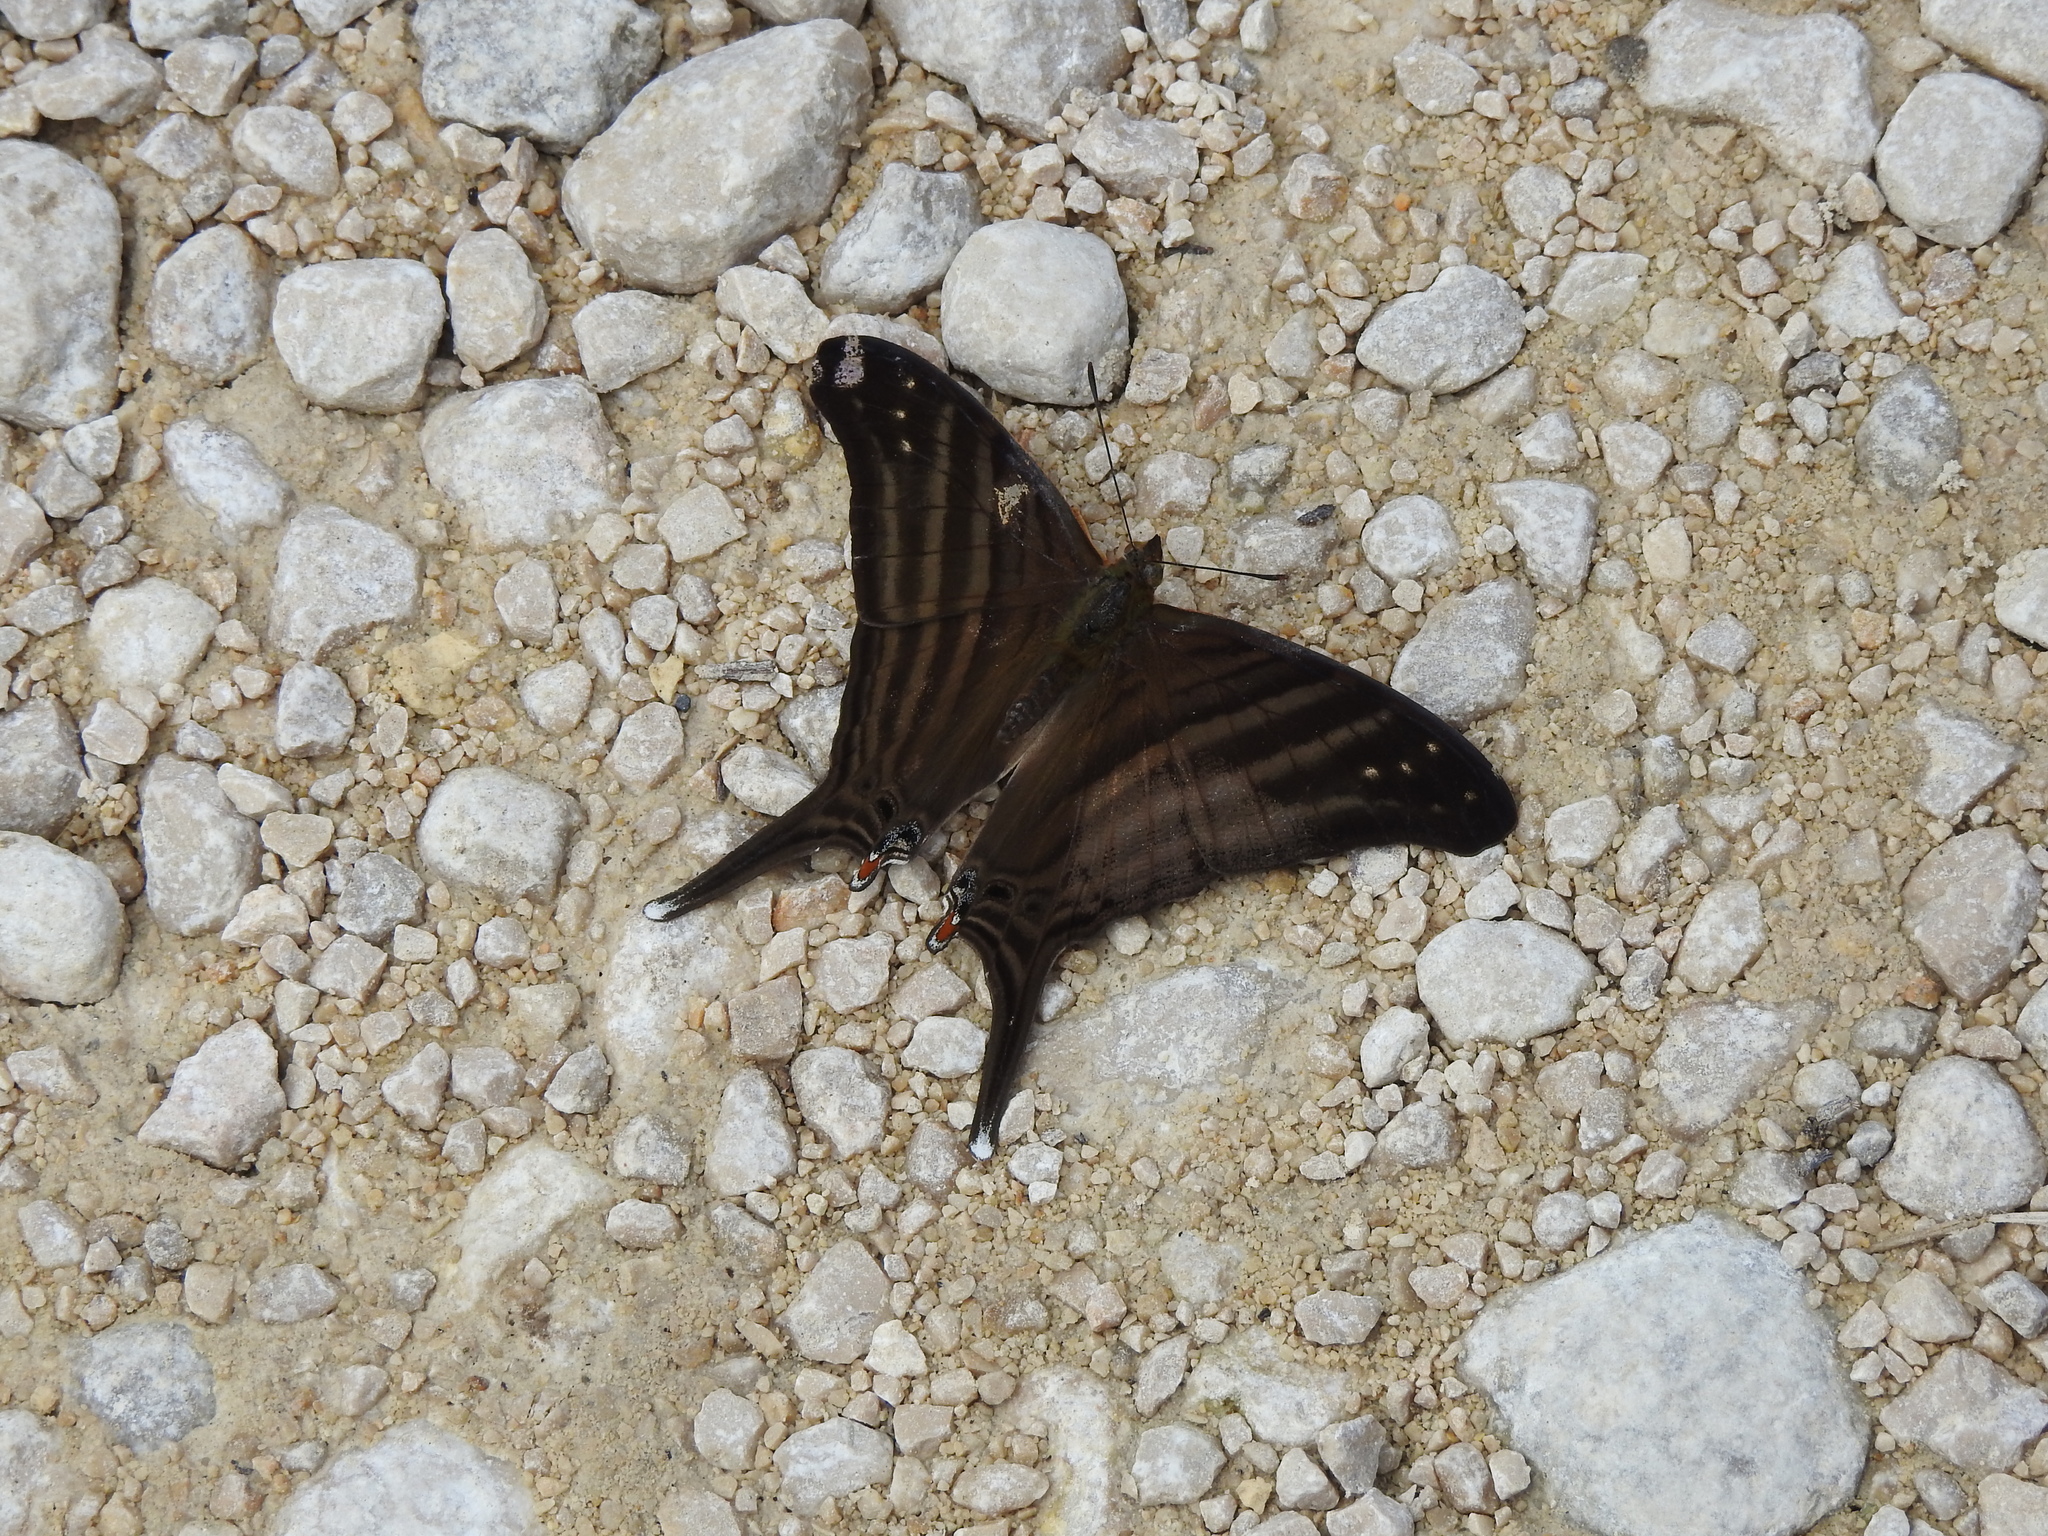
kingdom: Animalia
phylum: Arthropoda
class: Insecta
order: Lepidoptera
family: Nymphalidae
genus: Marpesia
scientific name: Marpesia chiron
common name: Many-banded daggerwing
